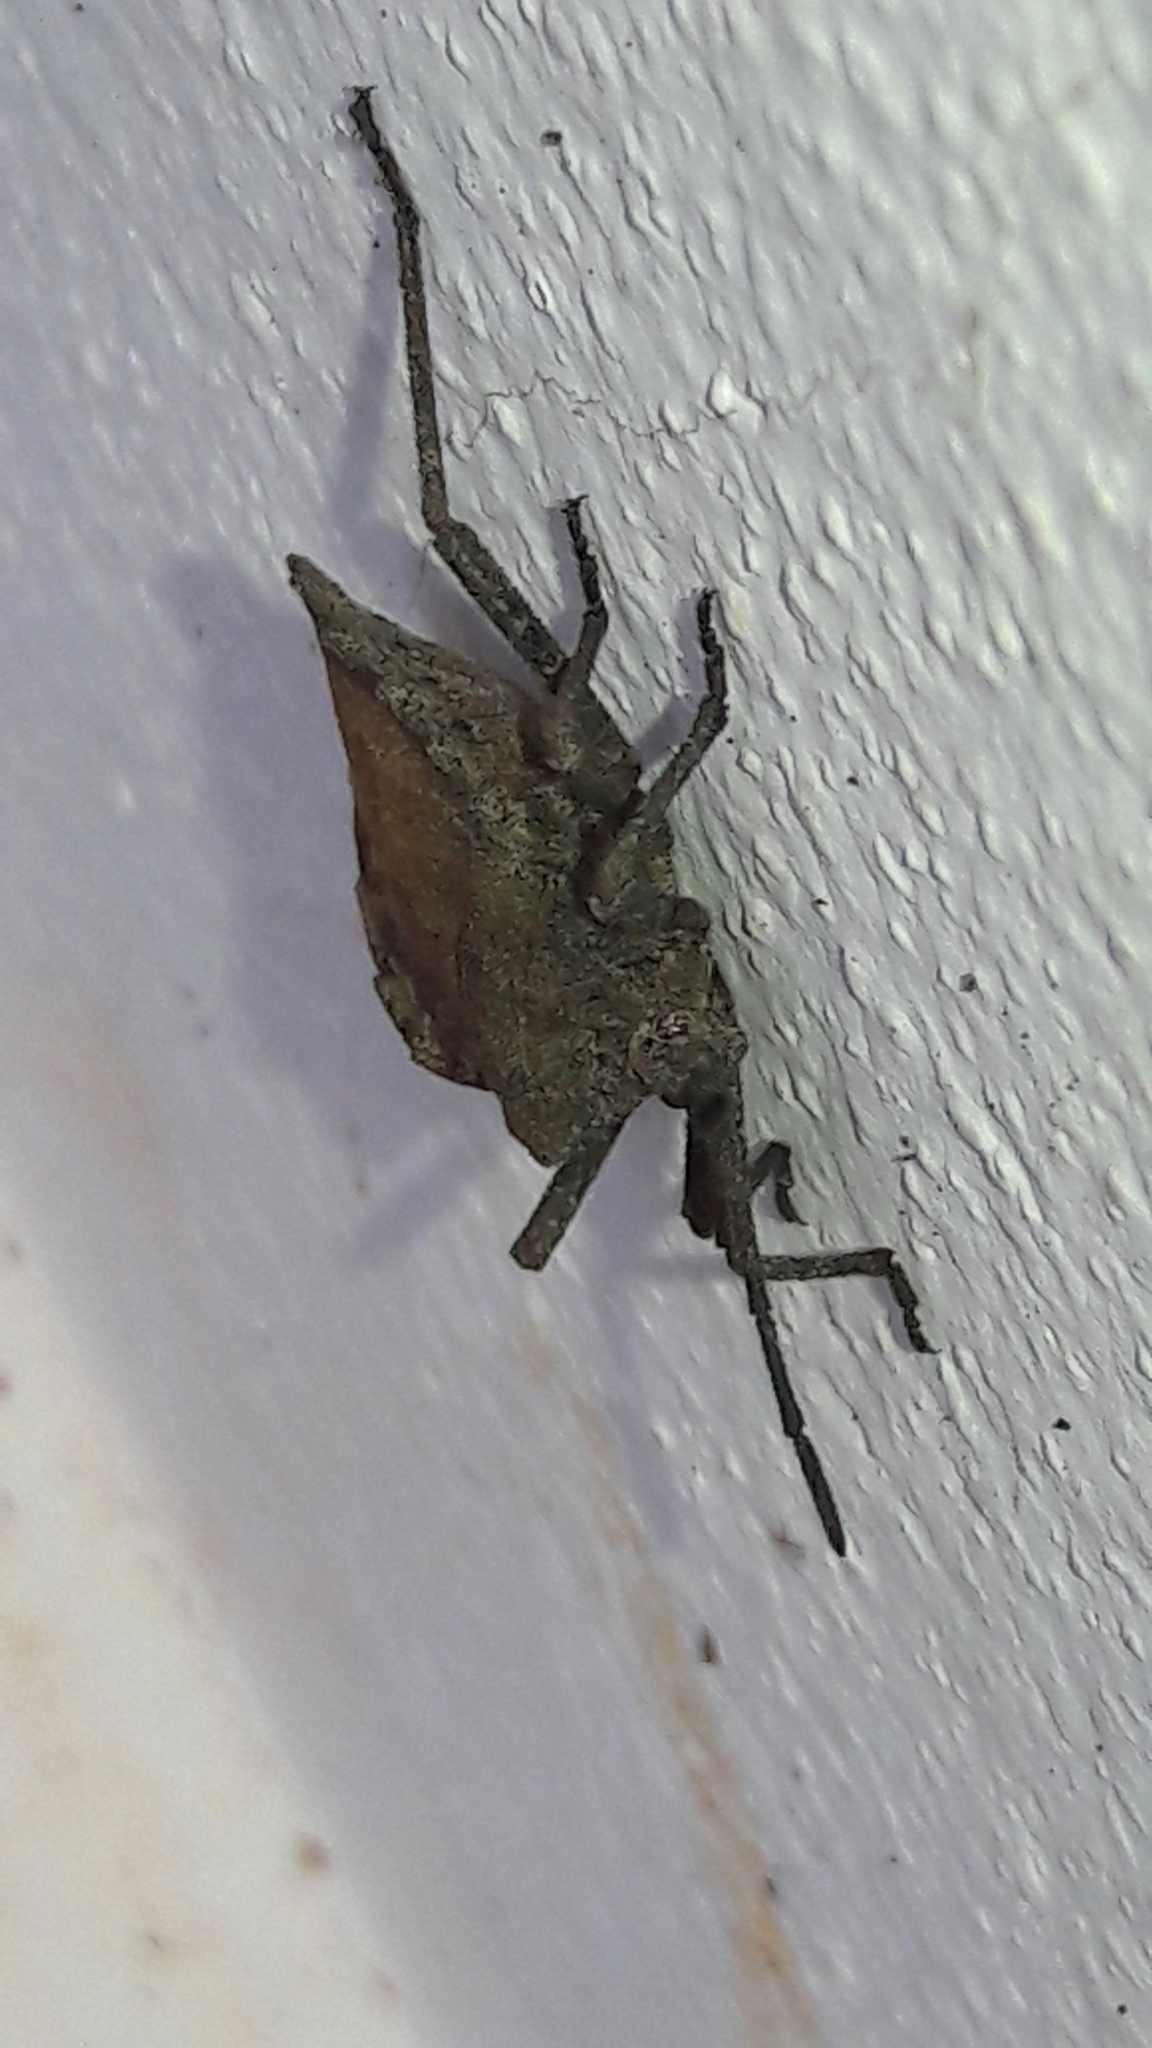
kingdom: Animalia
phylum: Arthropoda
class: Insecta
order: Hemiptera
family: Coreidae
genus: Spartocera
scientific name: Spartocera fusca
